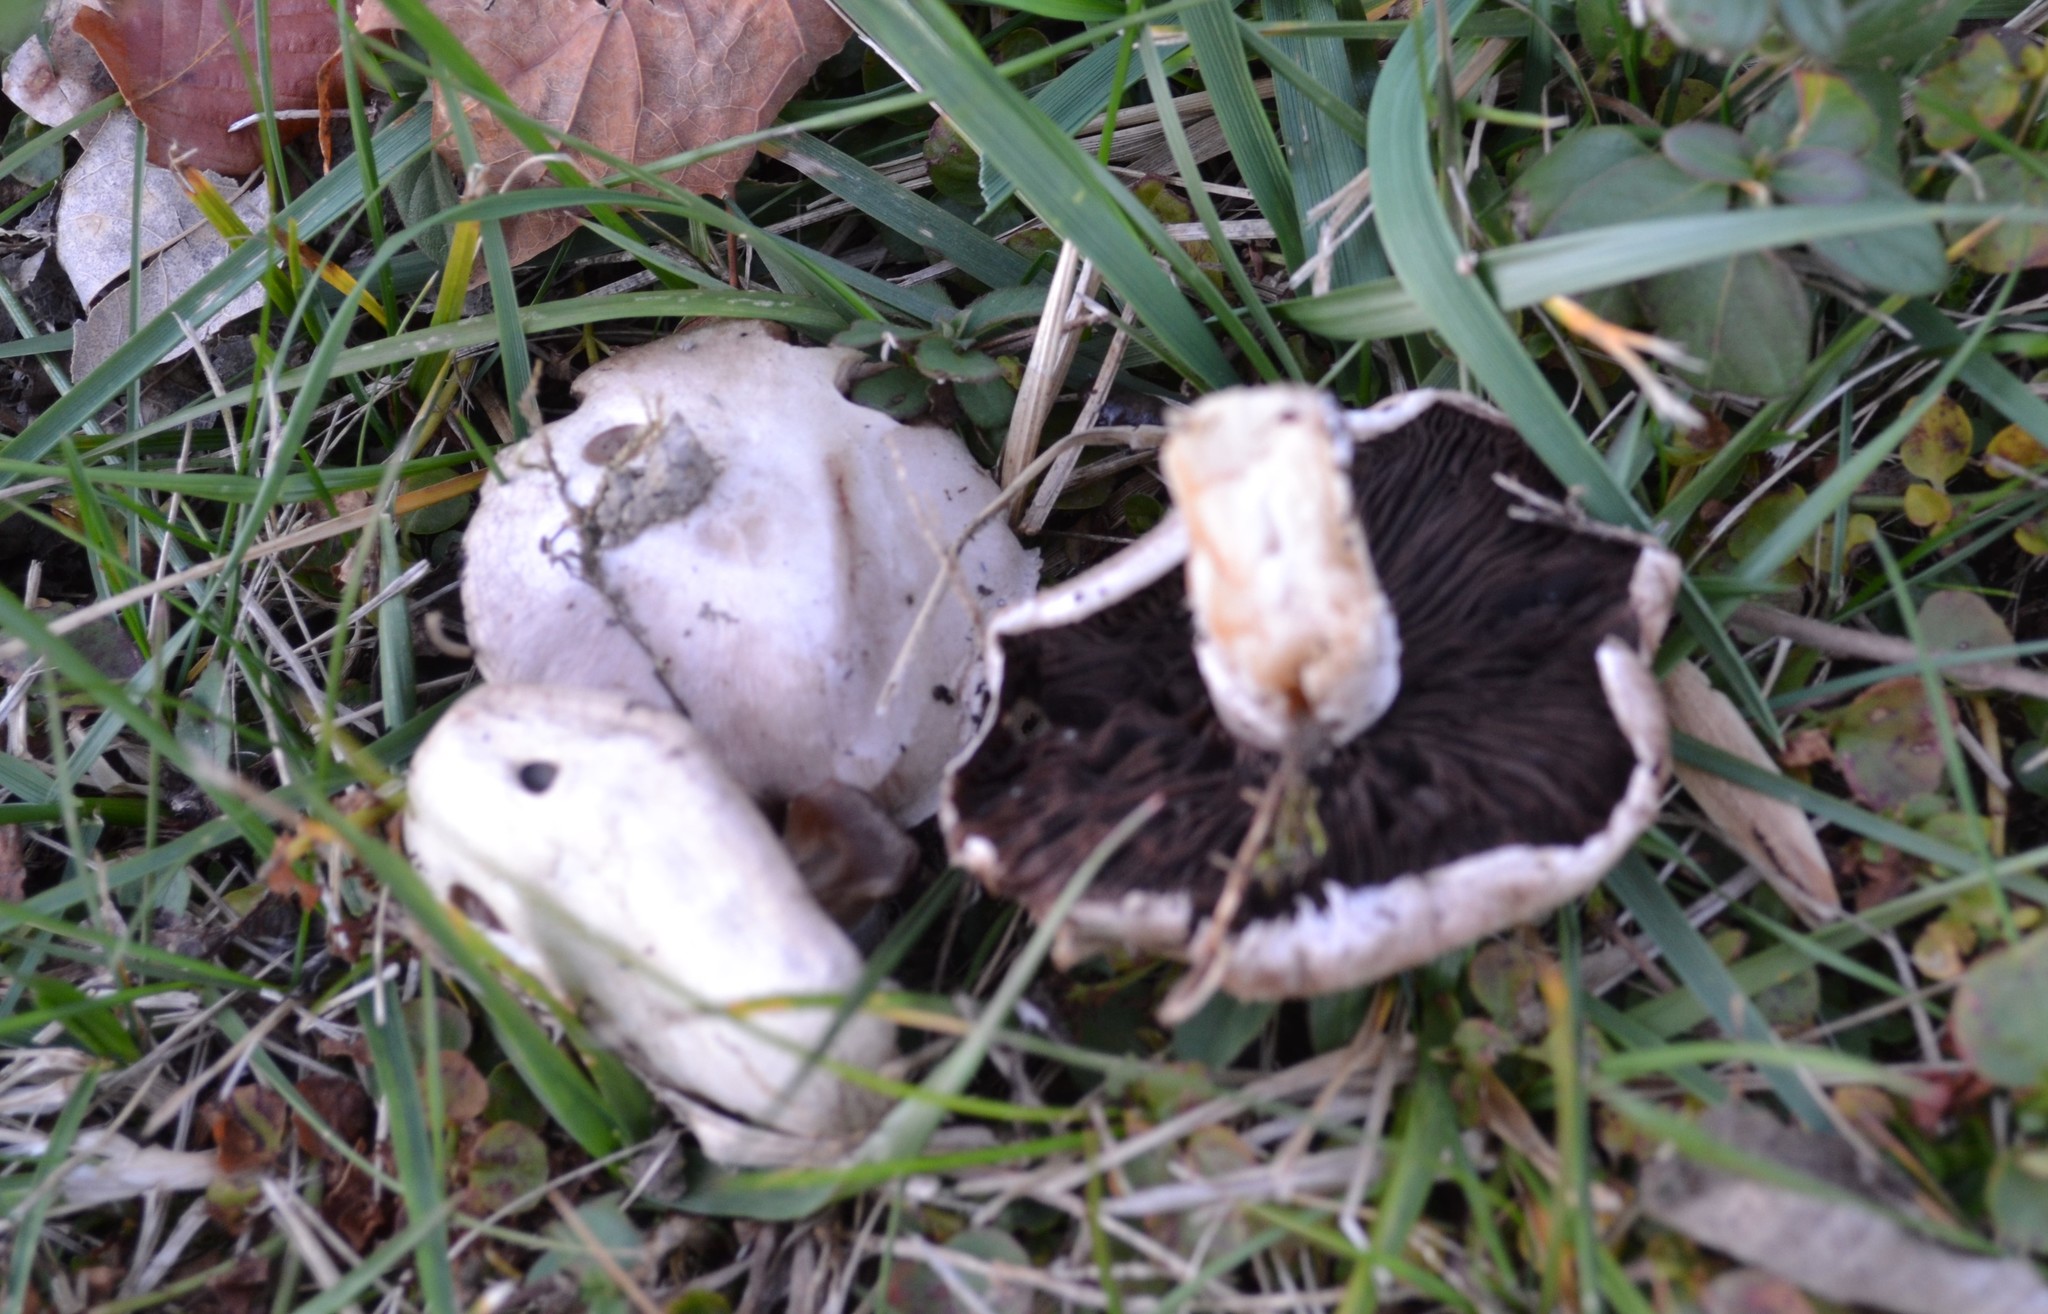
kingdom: Fungi
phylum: Basidiomycota
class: Agaricomycetes
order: Agaricales
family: Agaricaceae
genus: Agaricus
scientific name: Agaricus campestris
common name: Field mushroom
